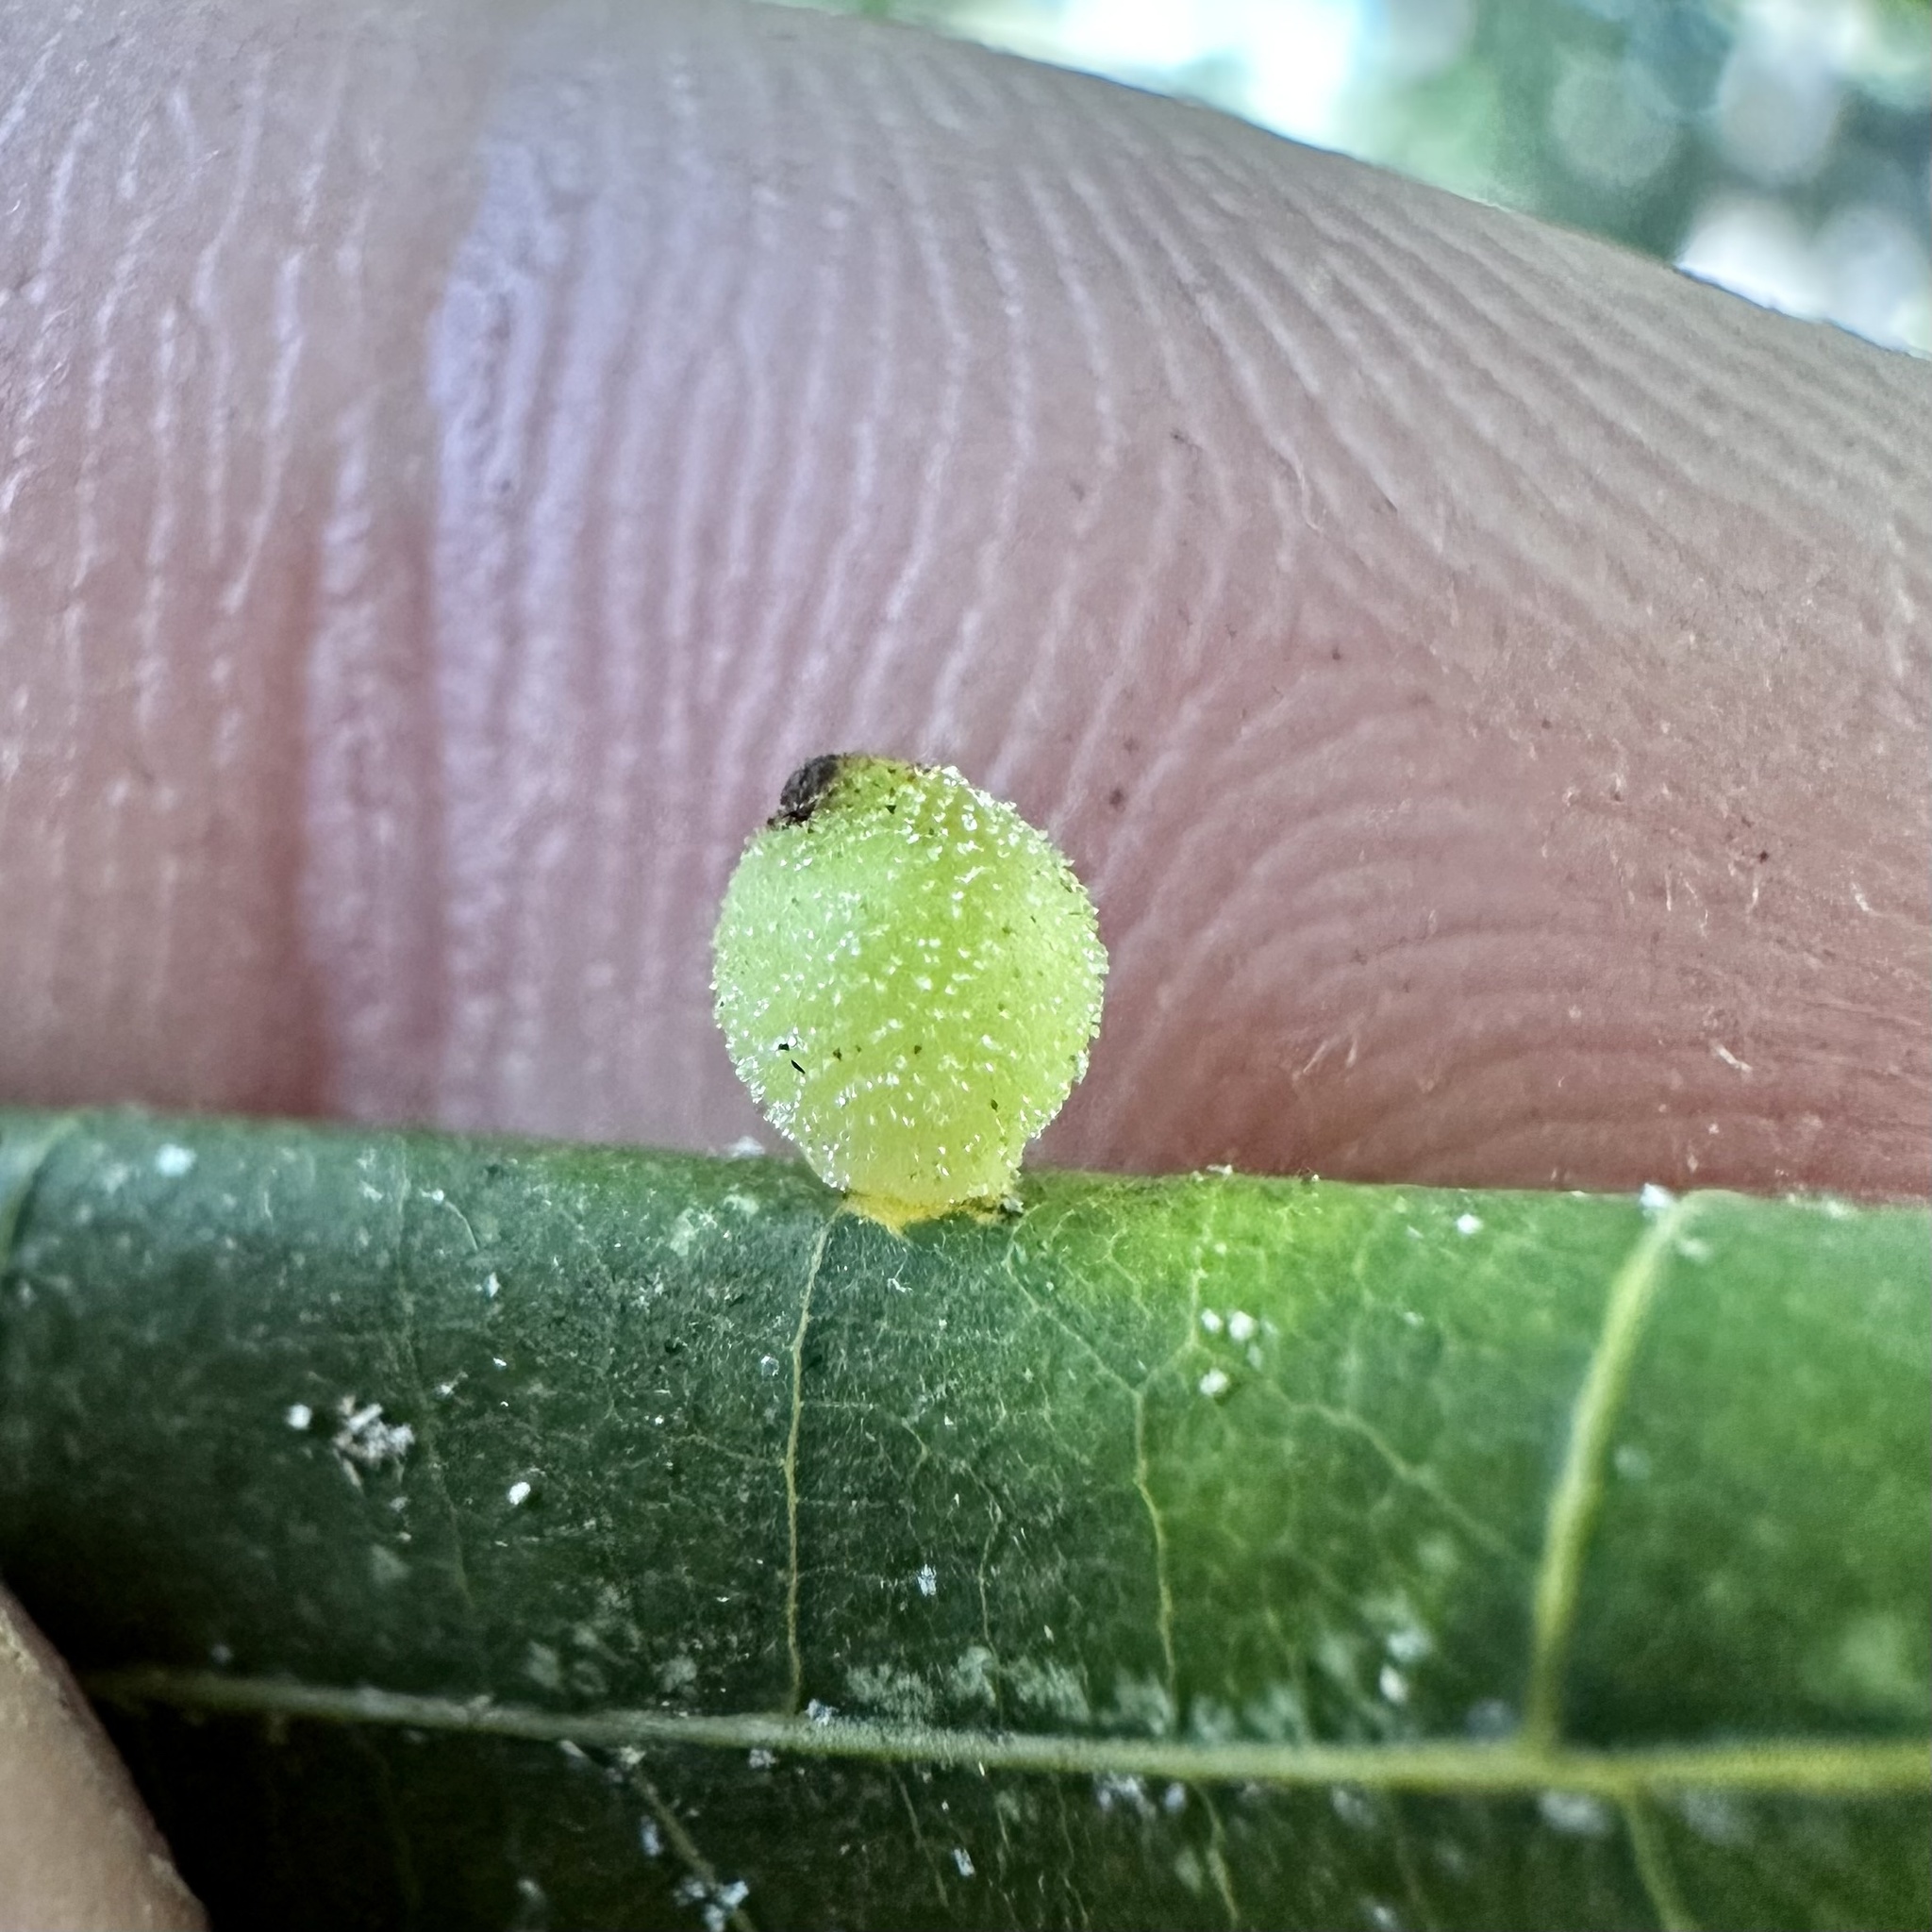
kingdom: Animalia
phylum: Arthropoda
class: Insecta
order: Diptera
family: Cecidomyiidae
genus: Caryomyia
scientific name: Caryomyia viscidolium
